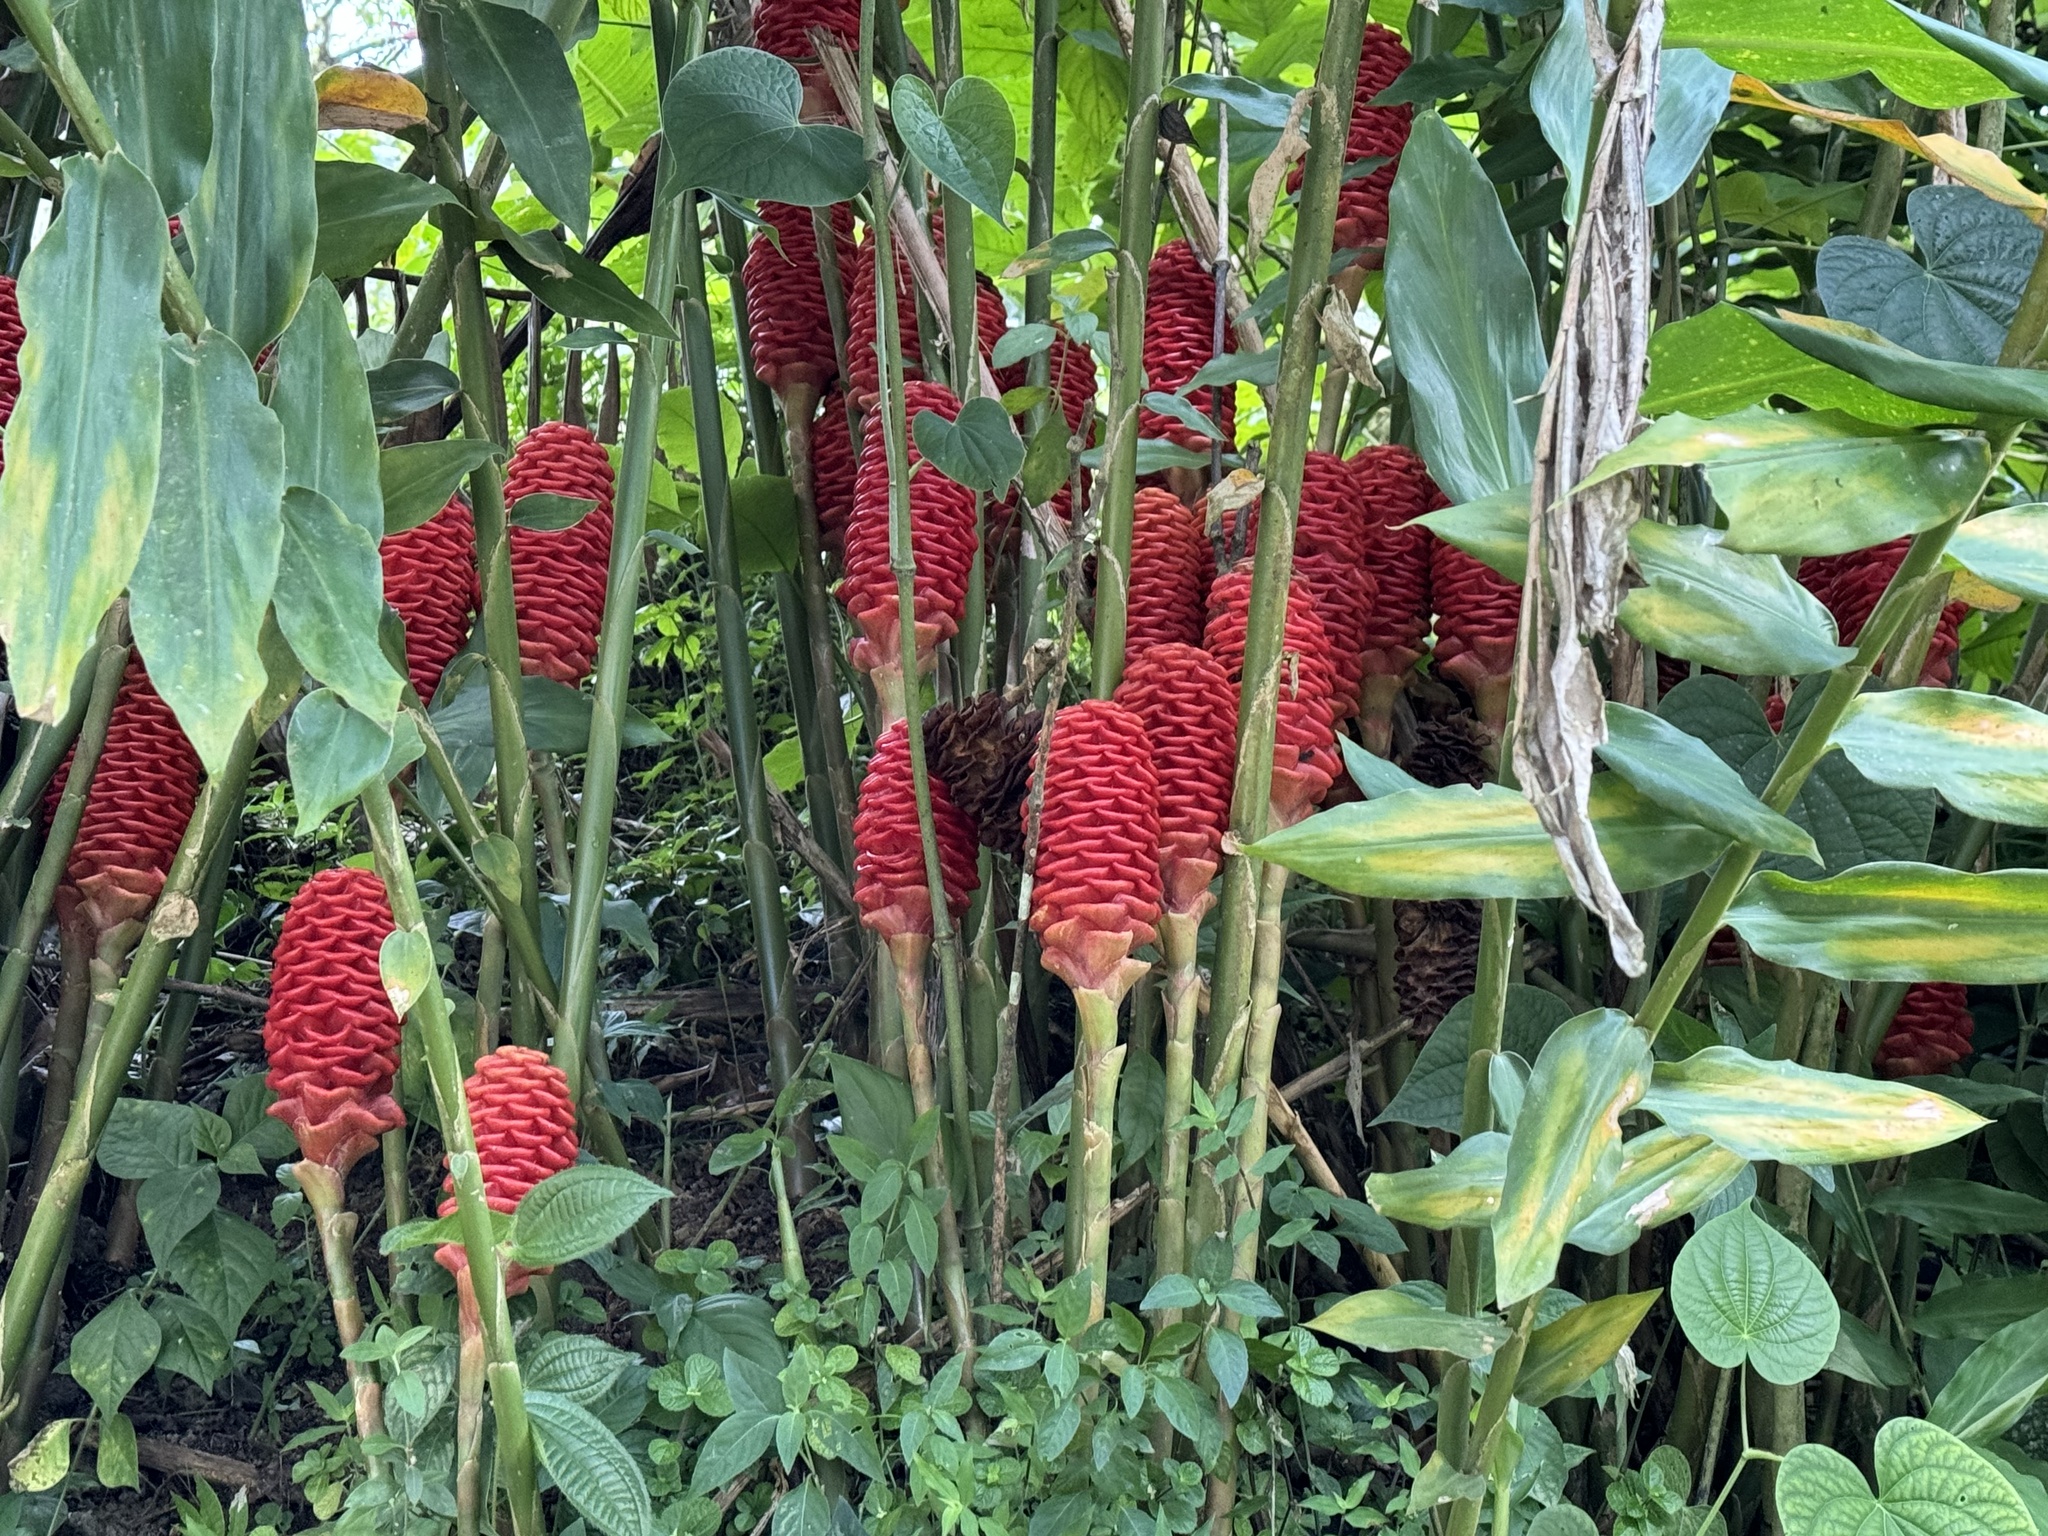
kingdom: Plantae
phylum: Tracheophyta
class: Liliopsida
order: Zingiberales
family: Zingiberaceae
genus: Zingiber
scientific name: Zingiber spectabile
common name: Beehive ginger
